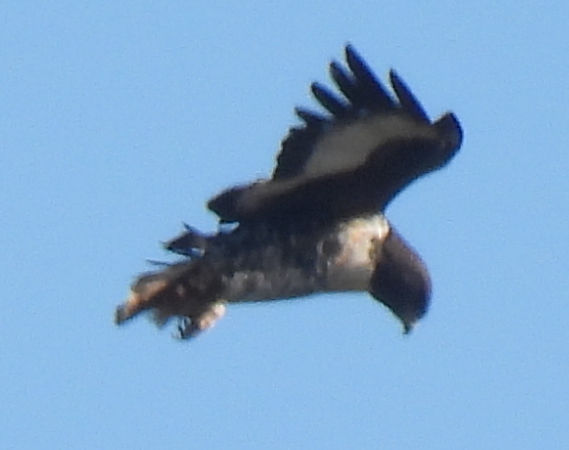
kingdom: Animalia
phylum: Chordata
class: Aves
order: Accipitriformes
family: Accipitridae
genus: Buteo
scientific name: Buteo rufofuscus
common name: Jackal buzzard
